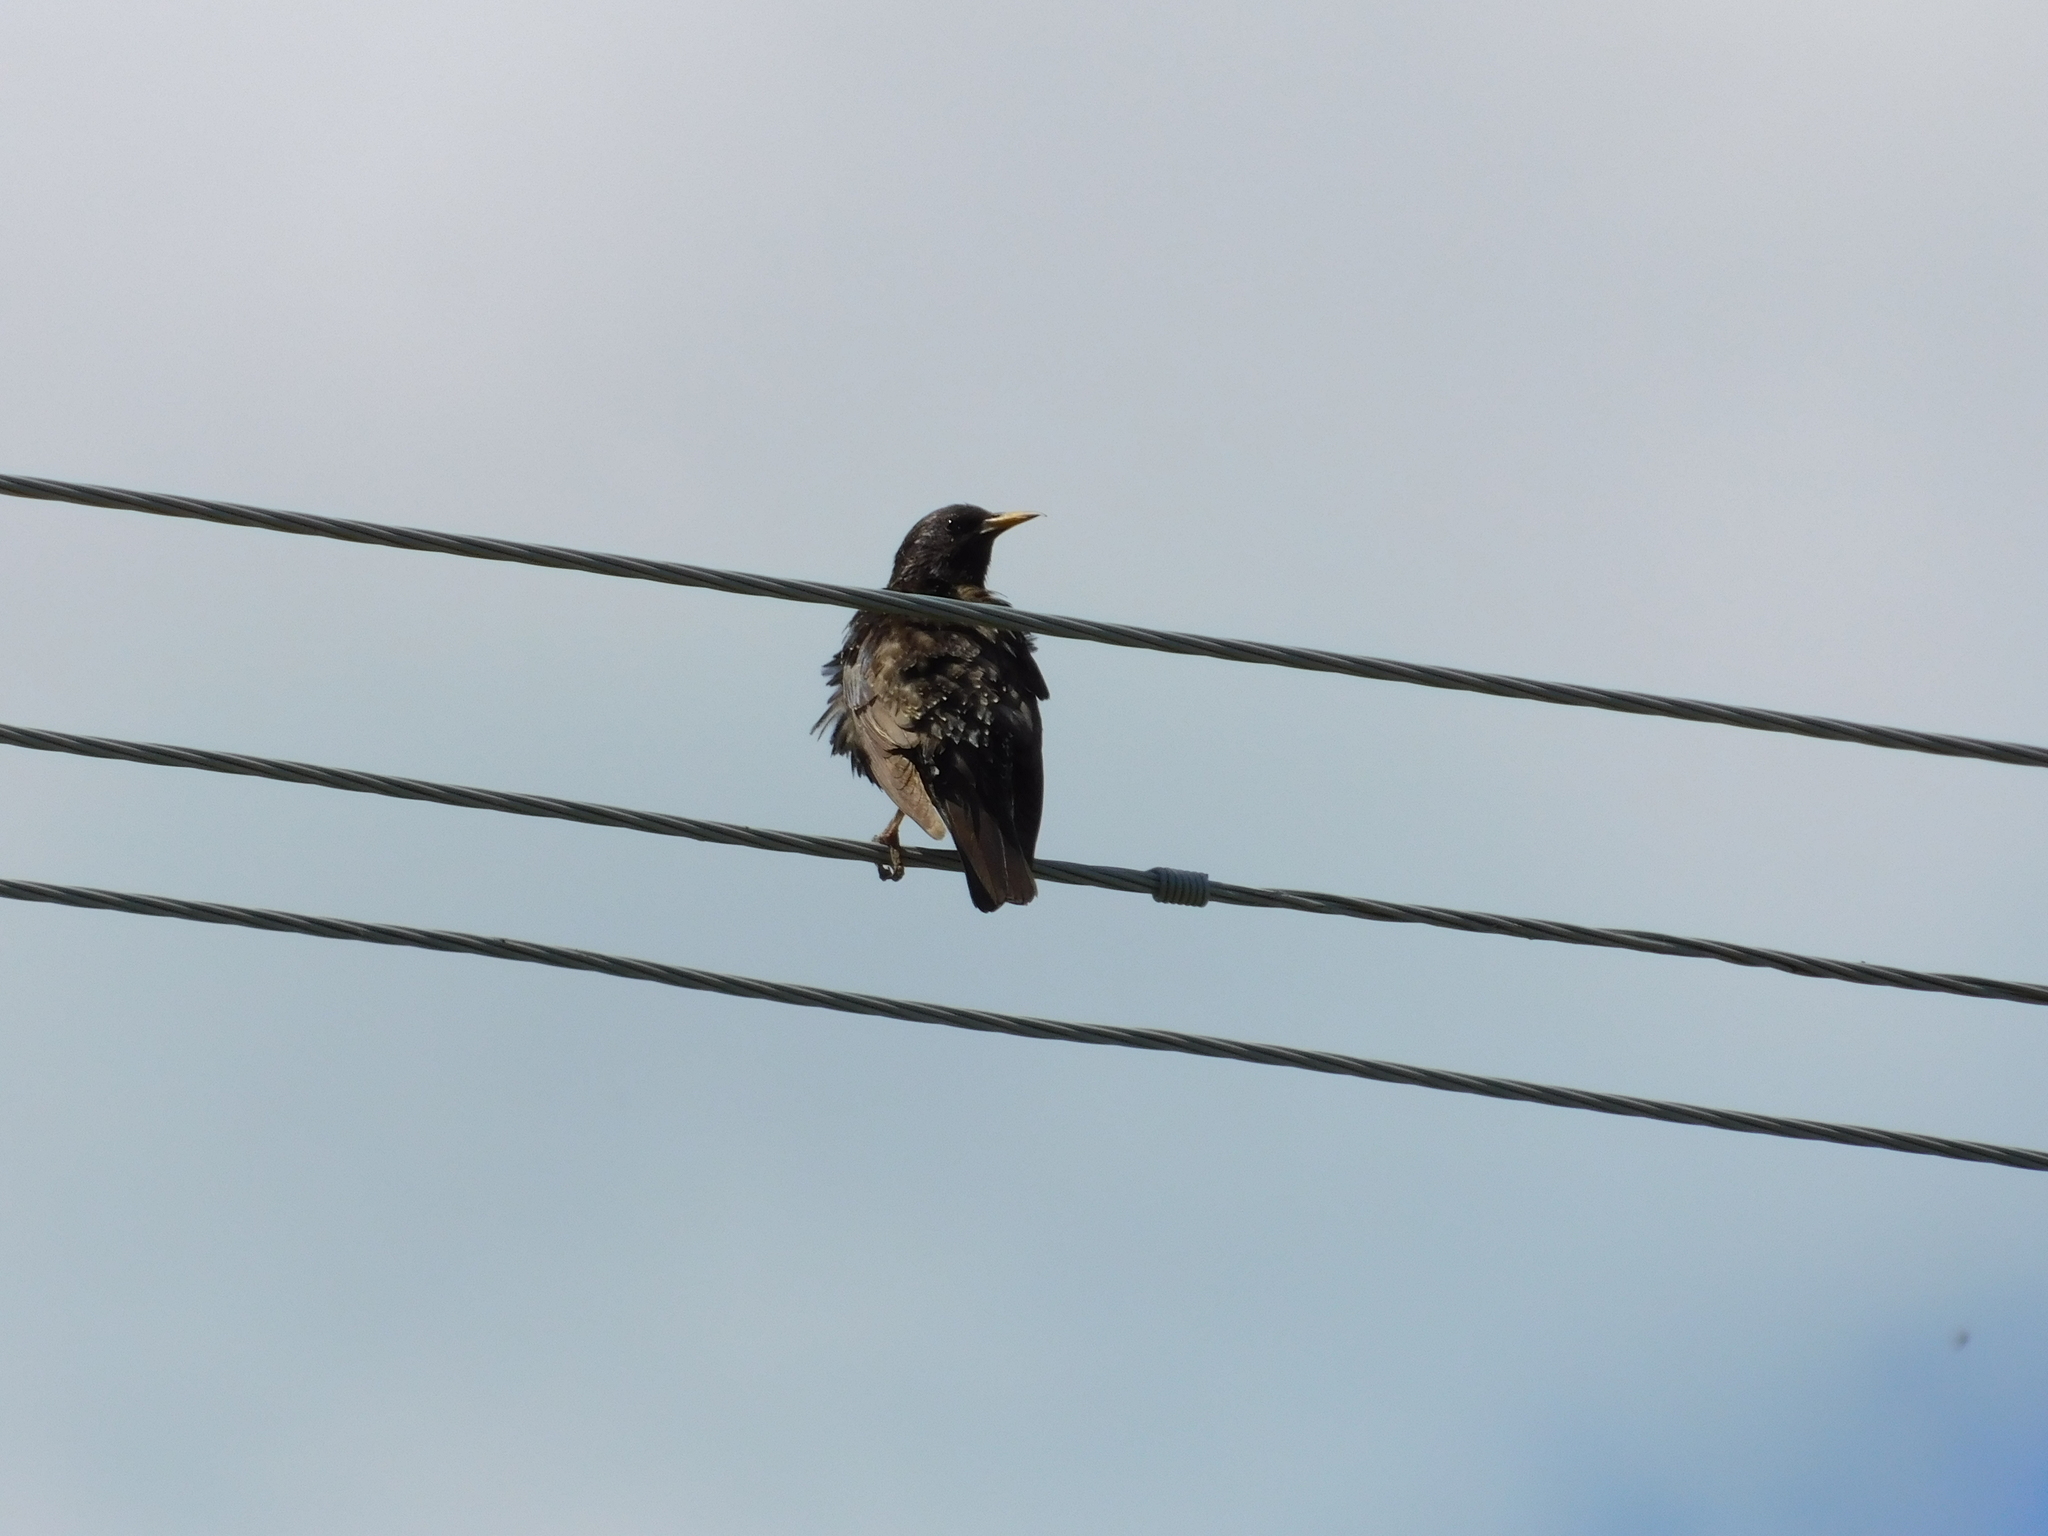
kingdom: Animalia
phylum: Chordata
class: Aves
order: Passeriformes
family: Sturnidae
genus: Sturnus
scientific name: Sturnus vulgaris
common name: Common starling
